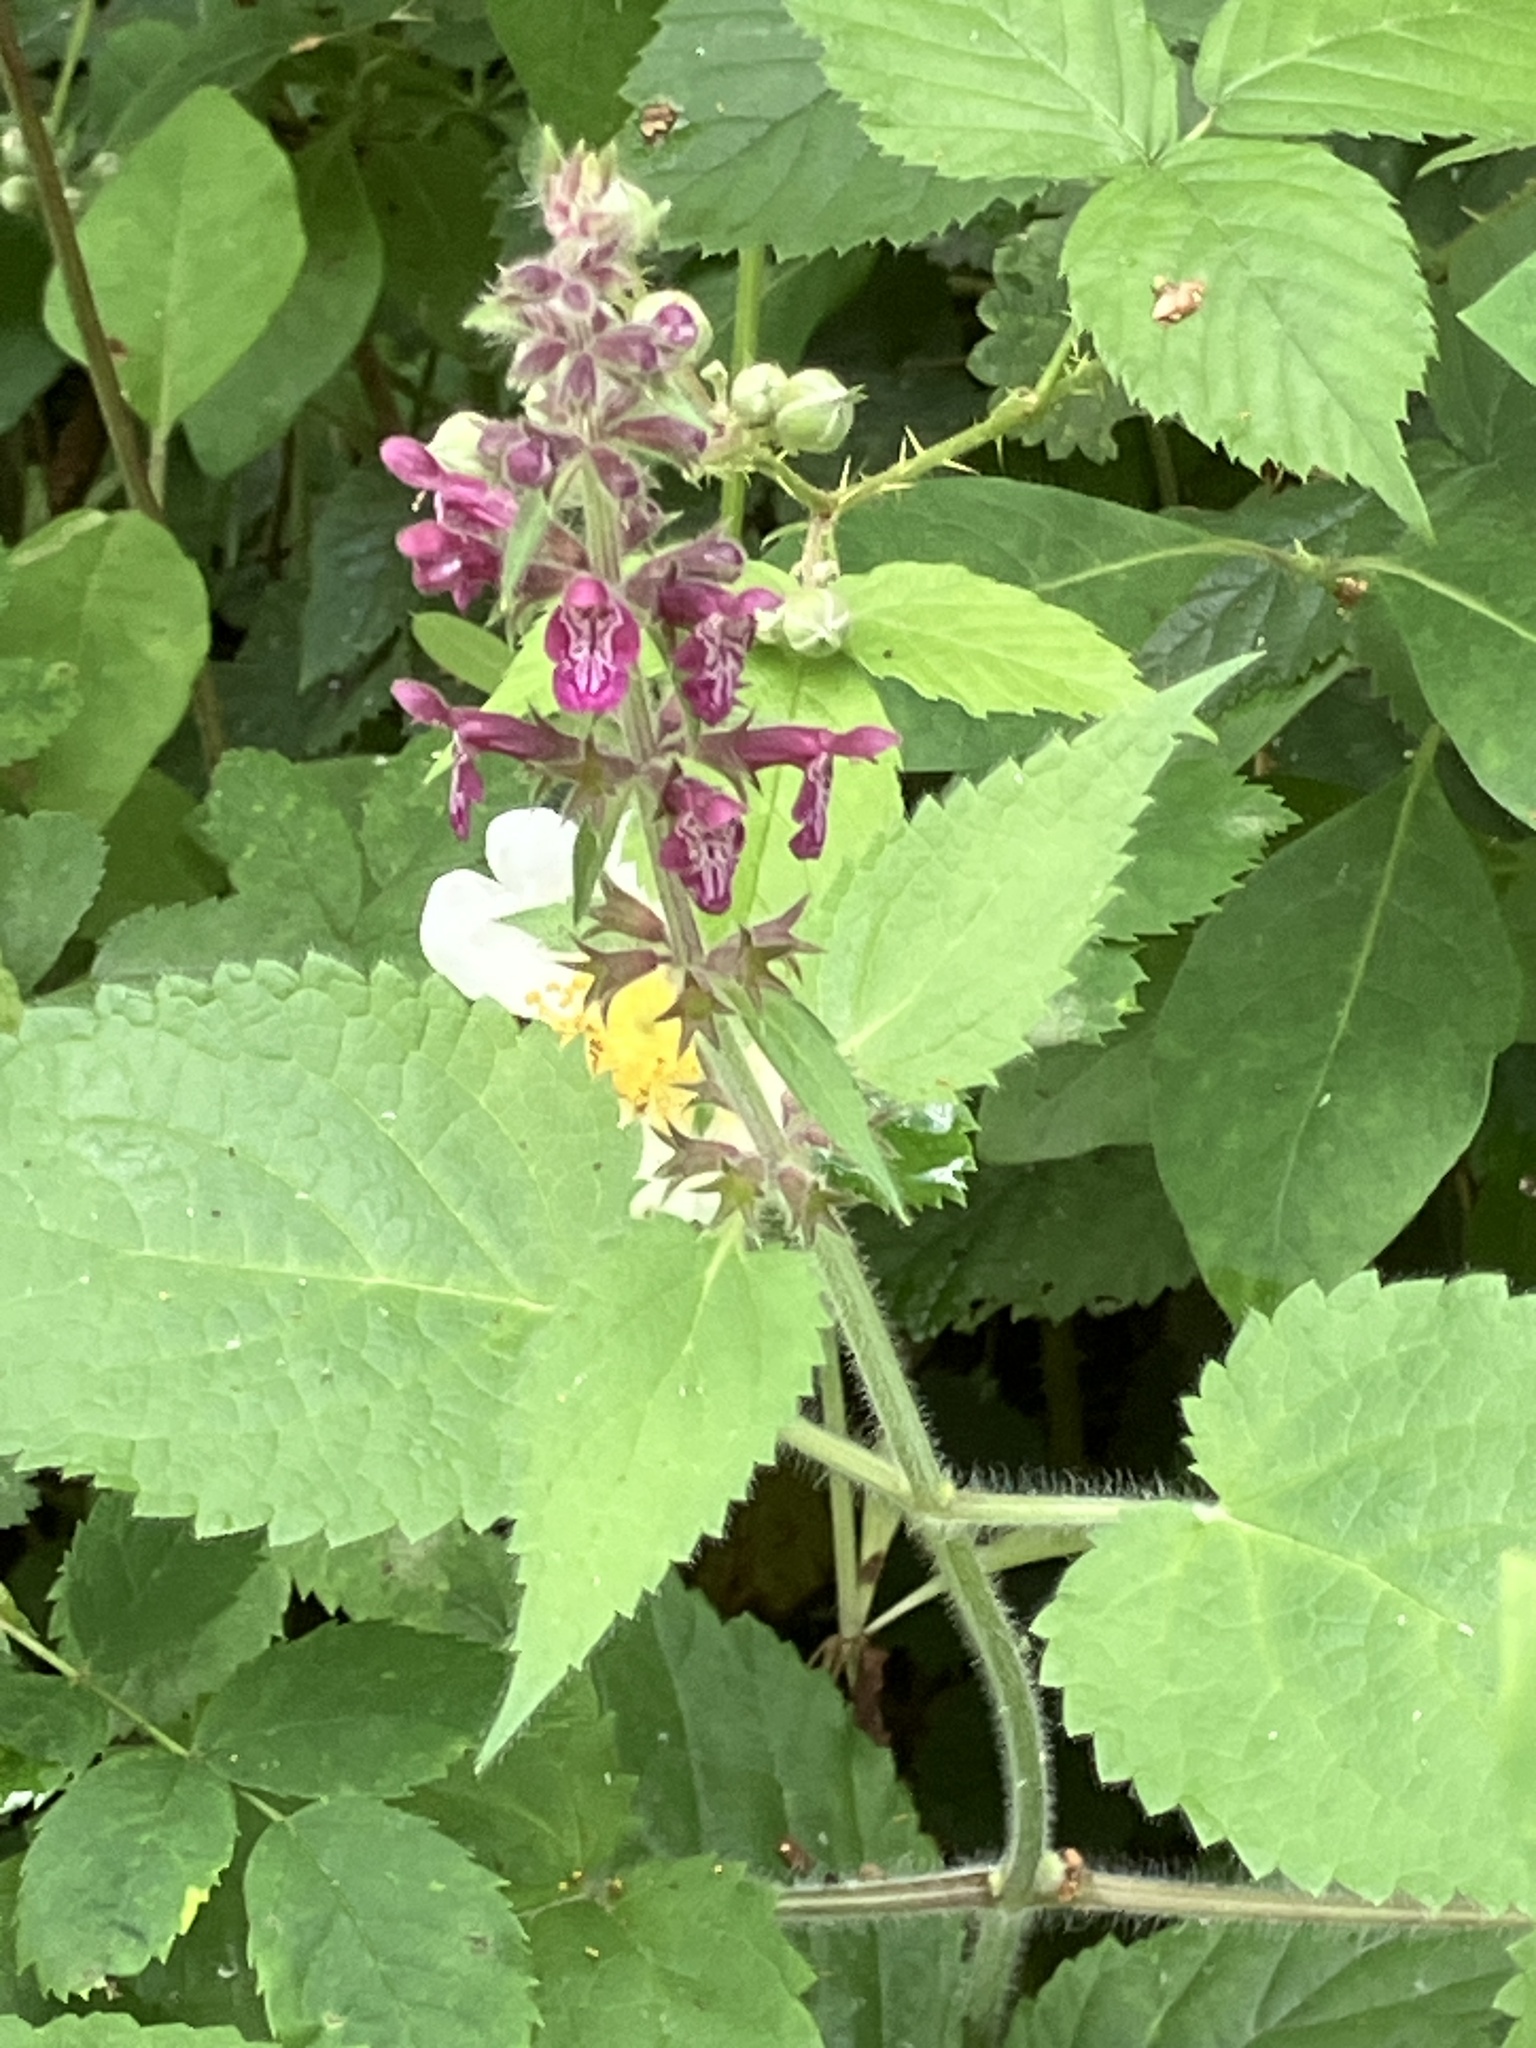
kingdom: Plantae
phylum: Tracheophyta
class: Magnoliopsida
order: Lamiales
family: Lamiaceae
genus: Stachys
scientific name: Stachys sylvatica
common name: Hedge woundwort
